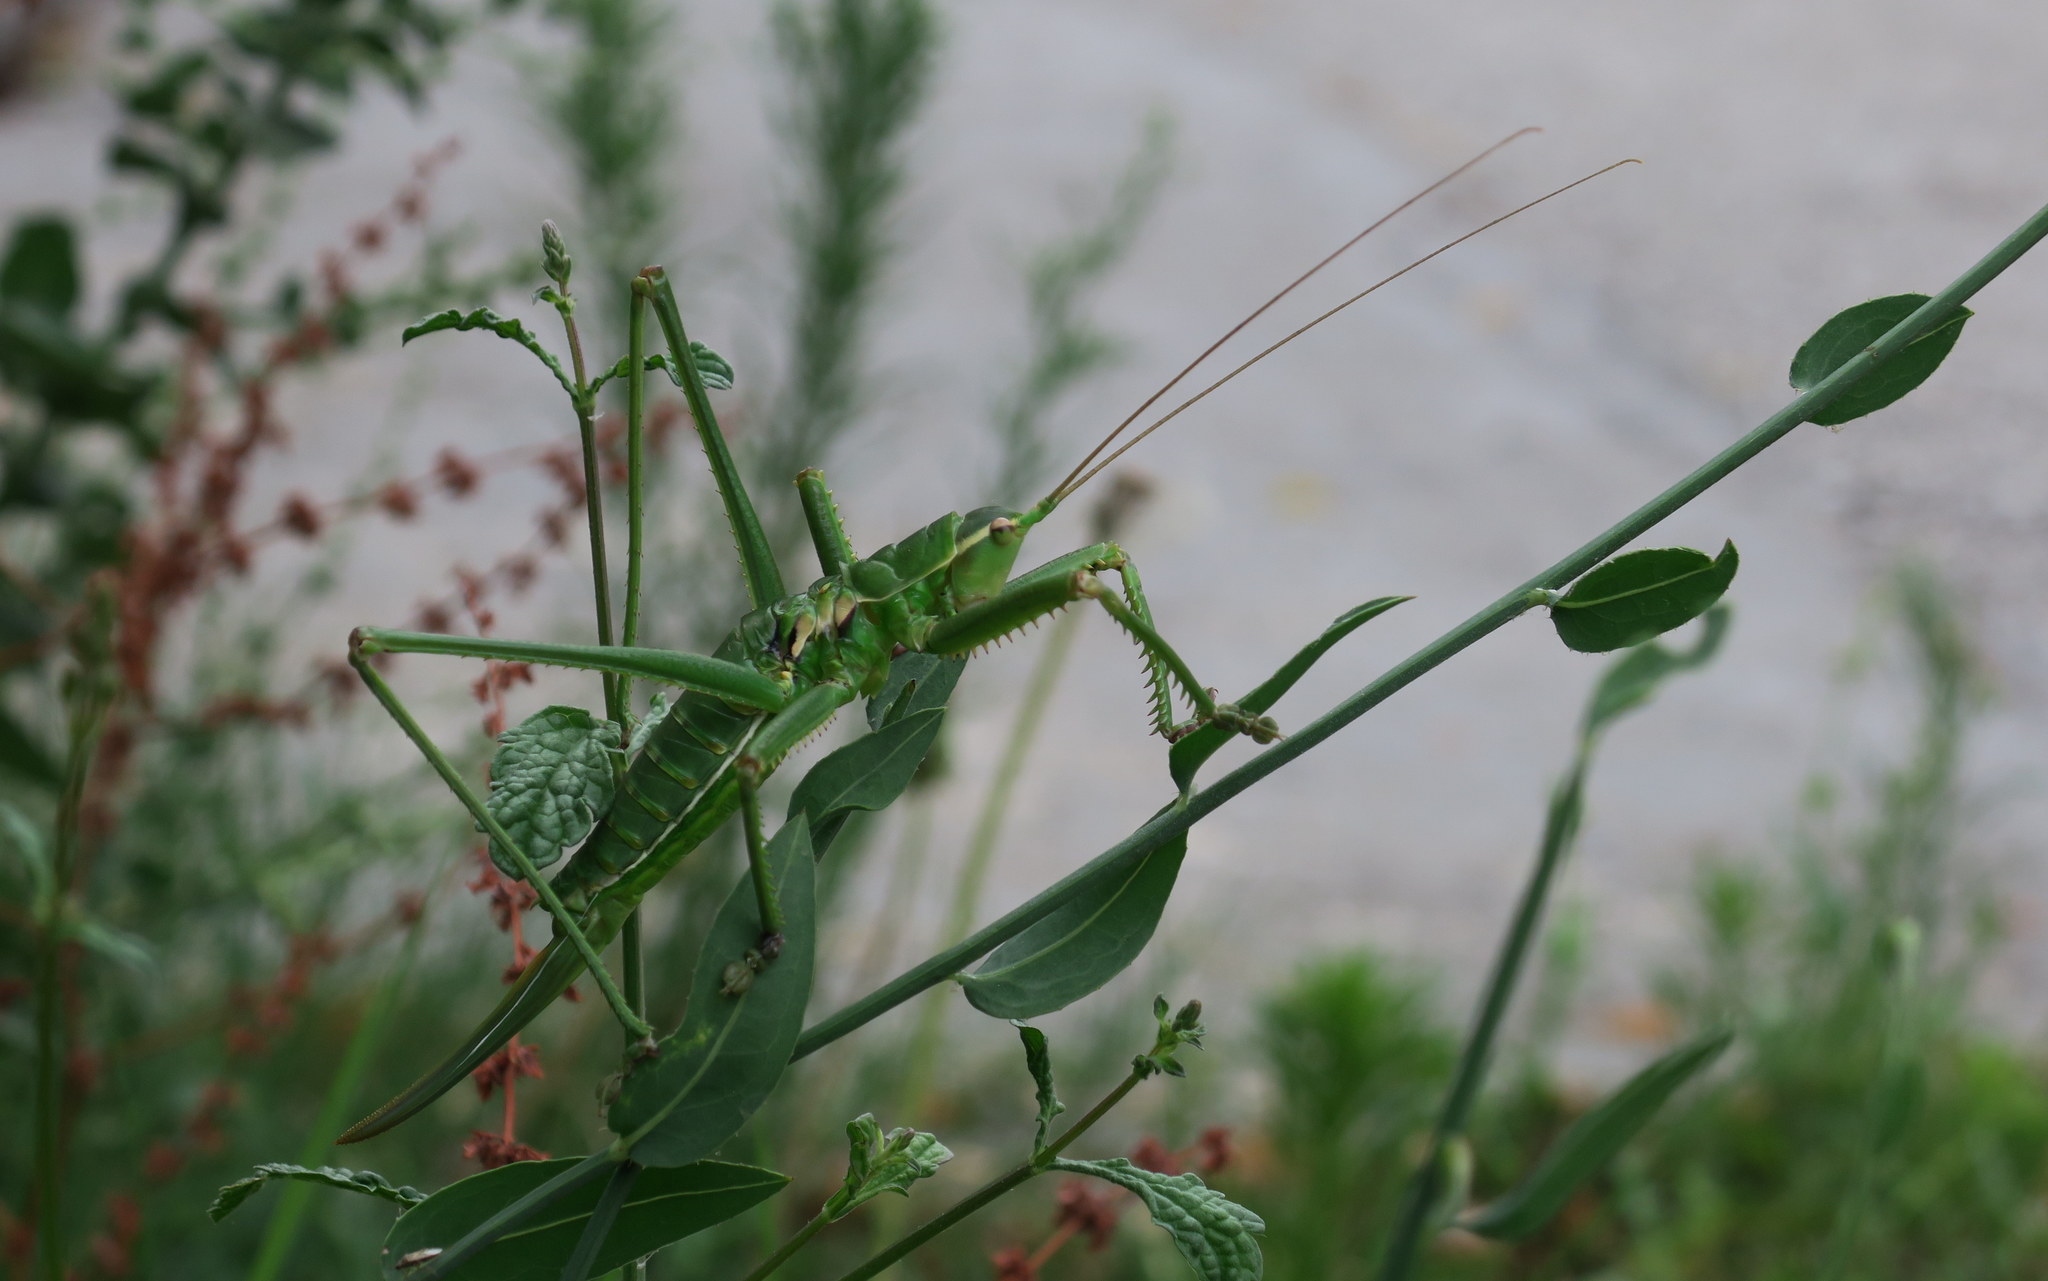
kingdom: Animalia
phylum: Arthropoda
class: Insecta
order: Orthoptera
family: Tettigoniidae
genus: Saga
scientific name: Saga natoliae
